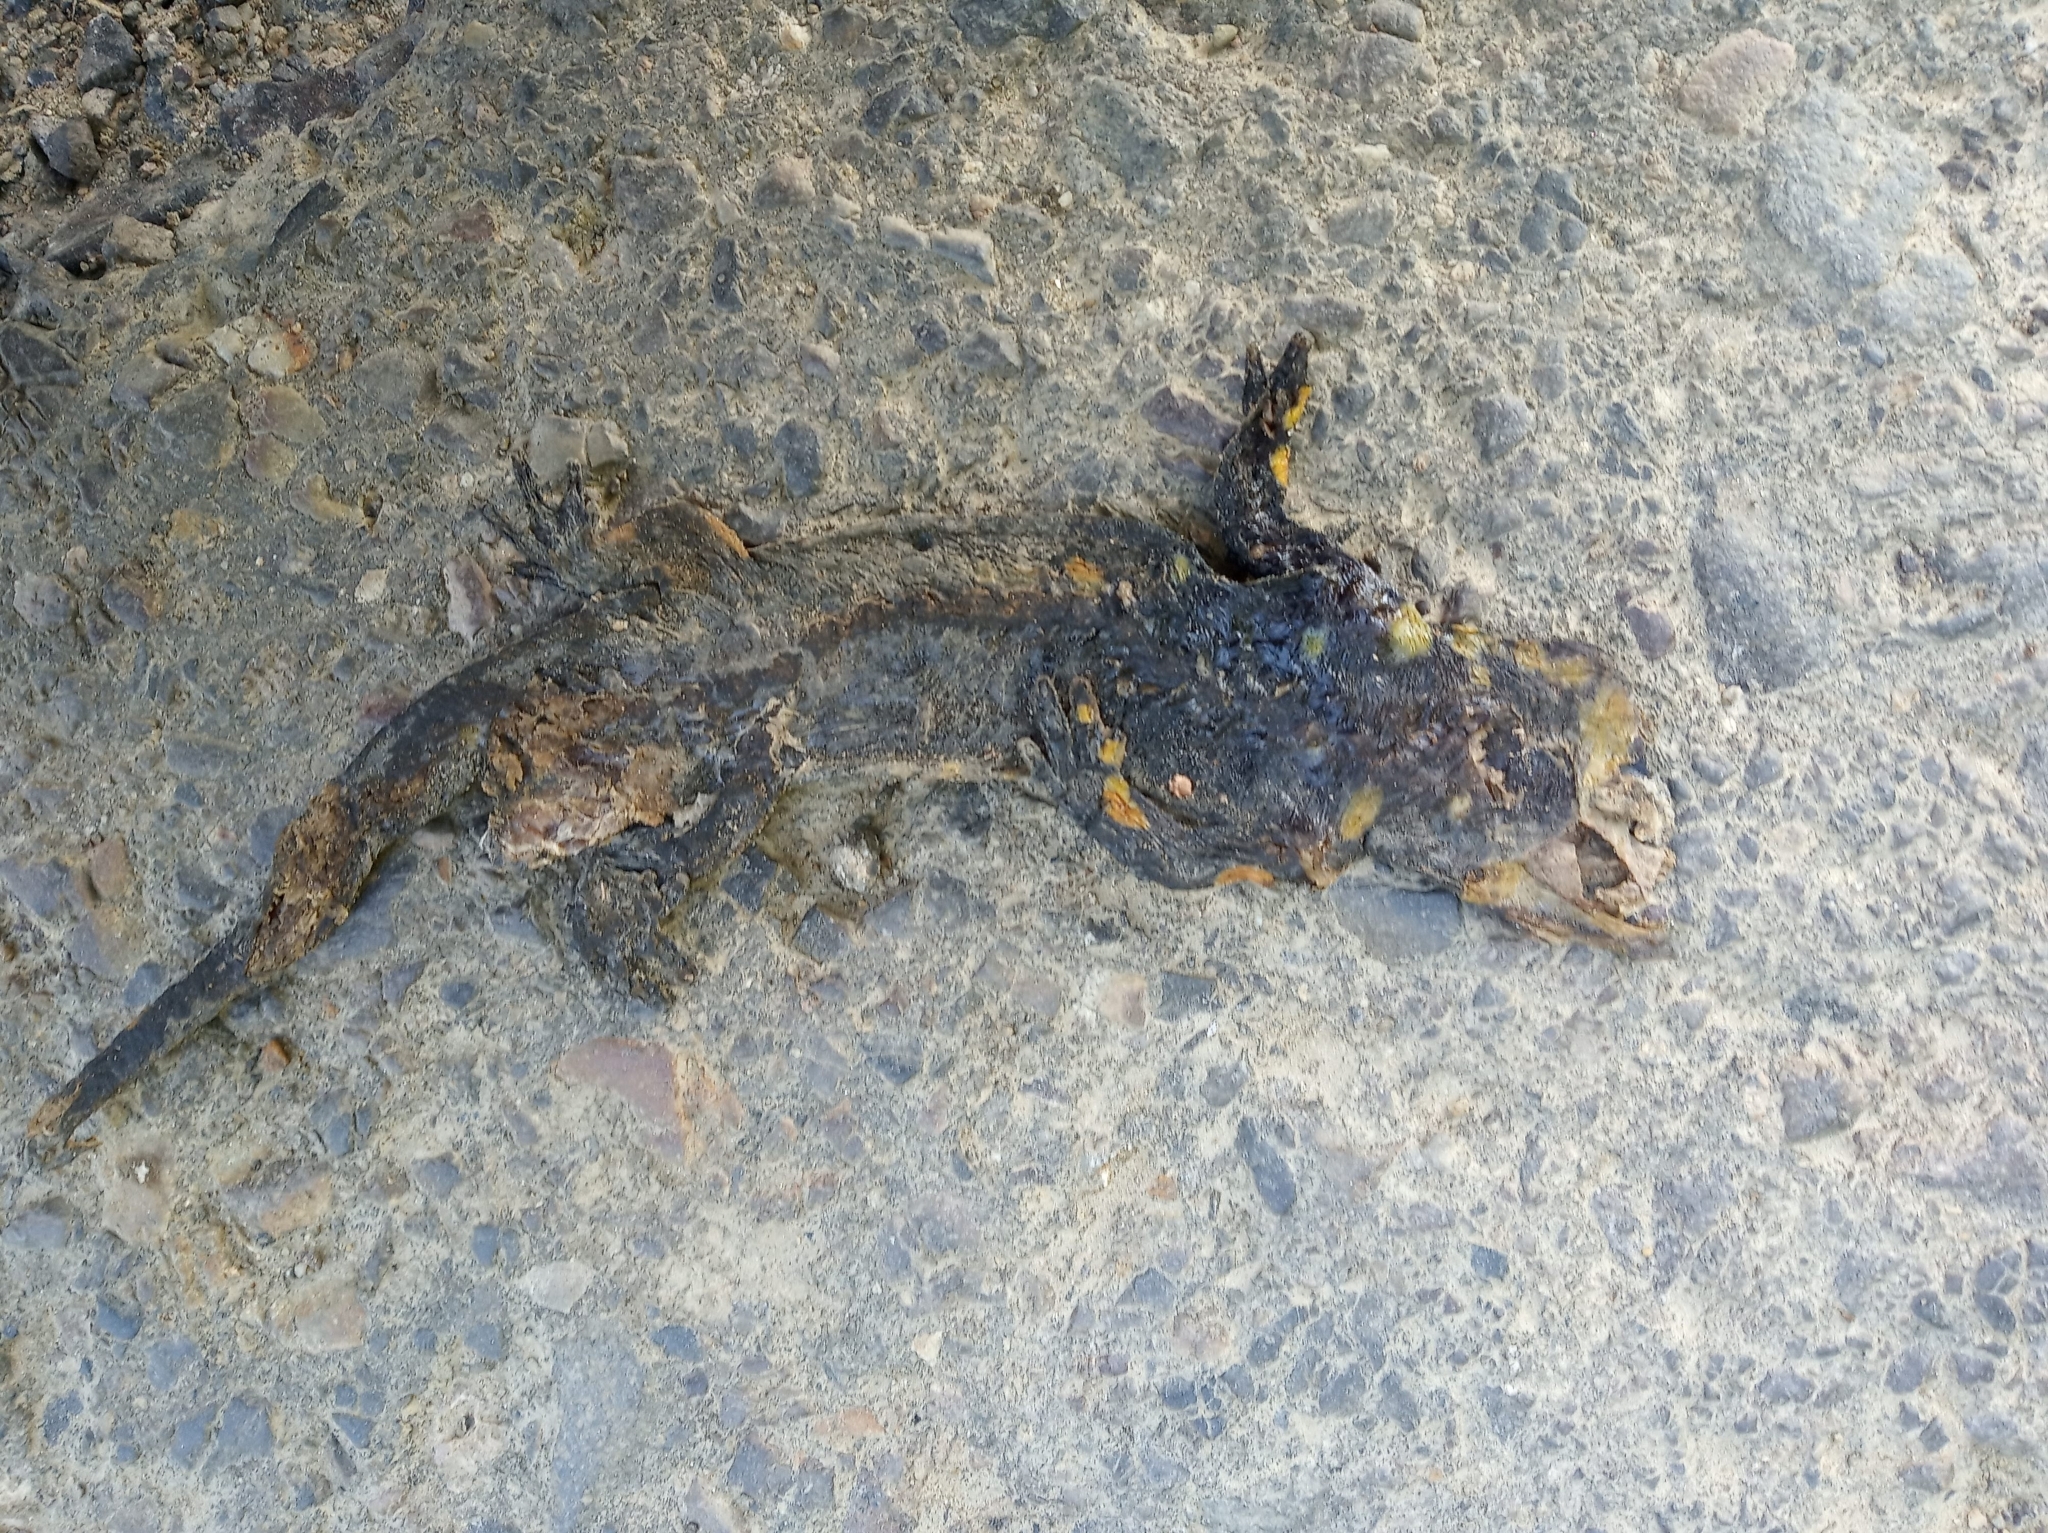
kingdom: Animalia
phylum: Chordata
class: Amphibia
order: Caudata
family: Salamandridae
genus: Salamandra
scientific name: Salamandra salamandra
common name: Fire salamander
